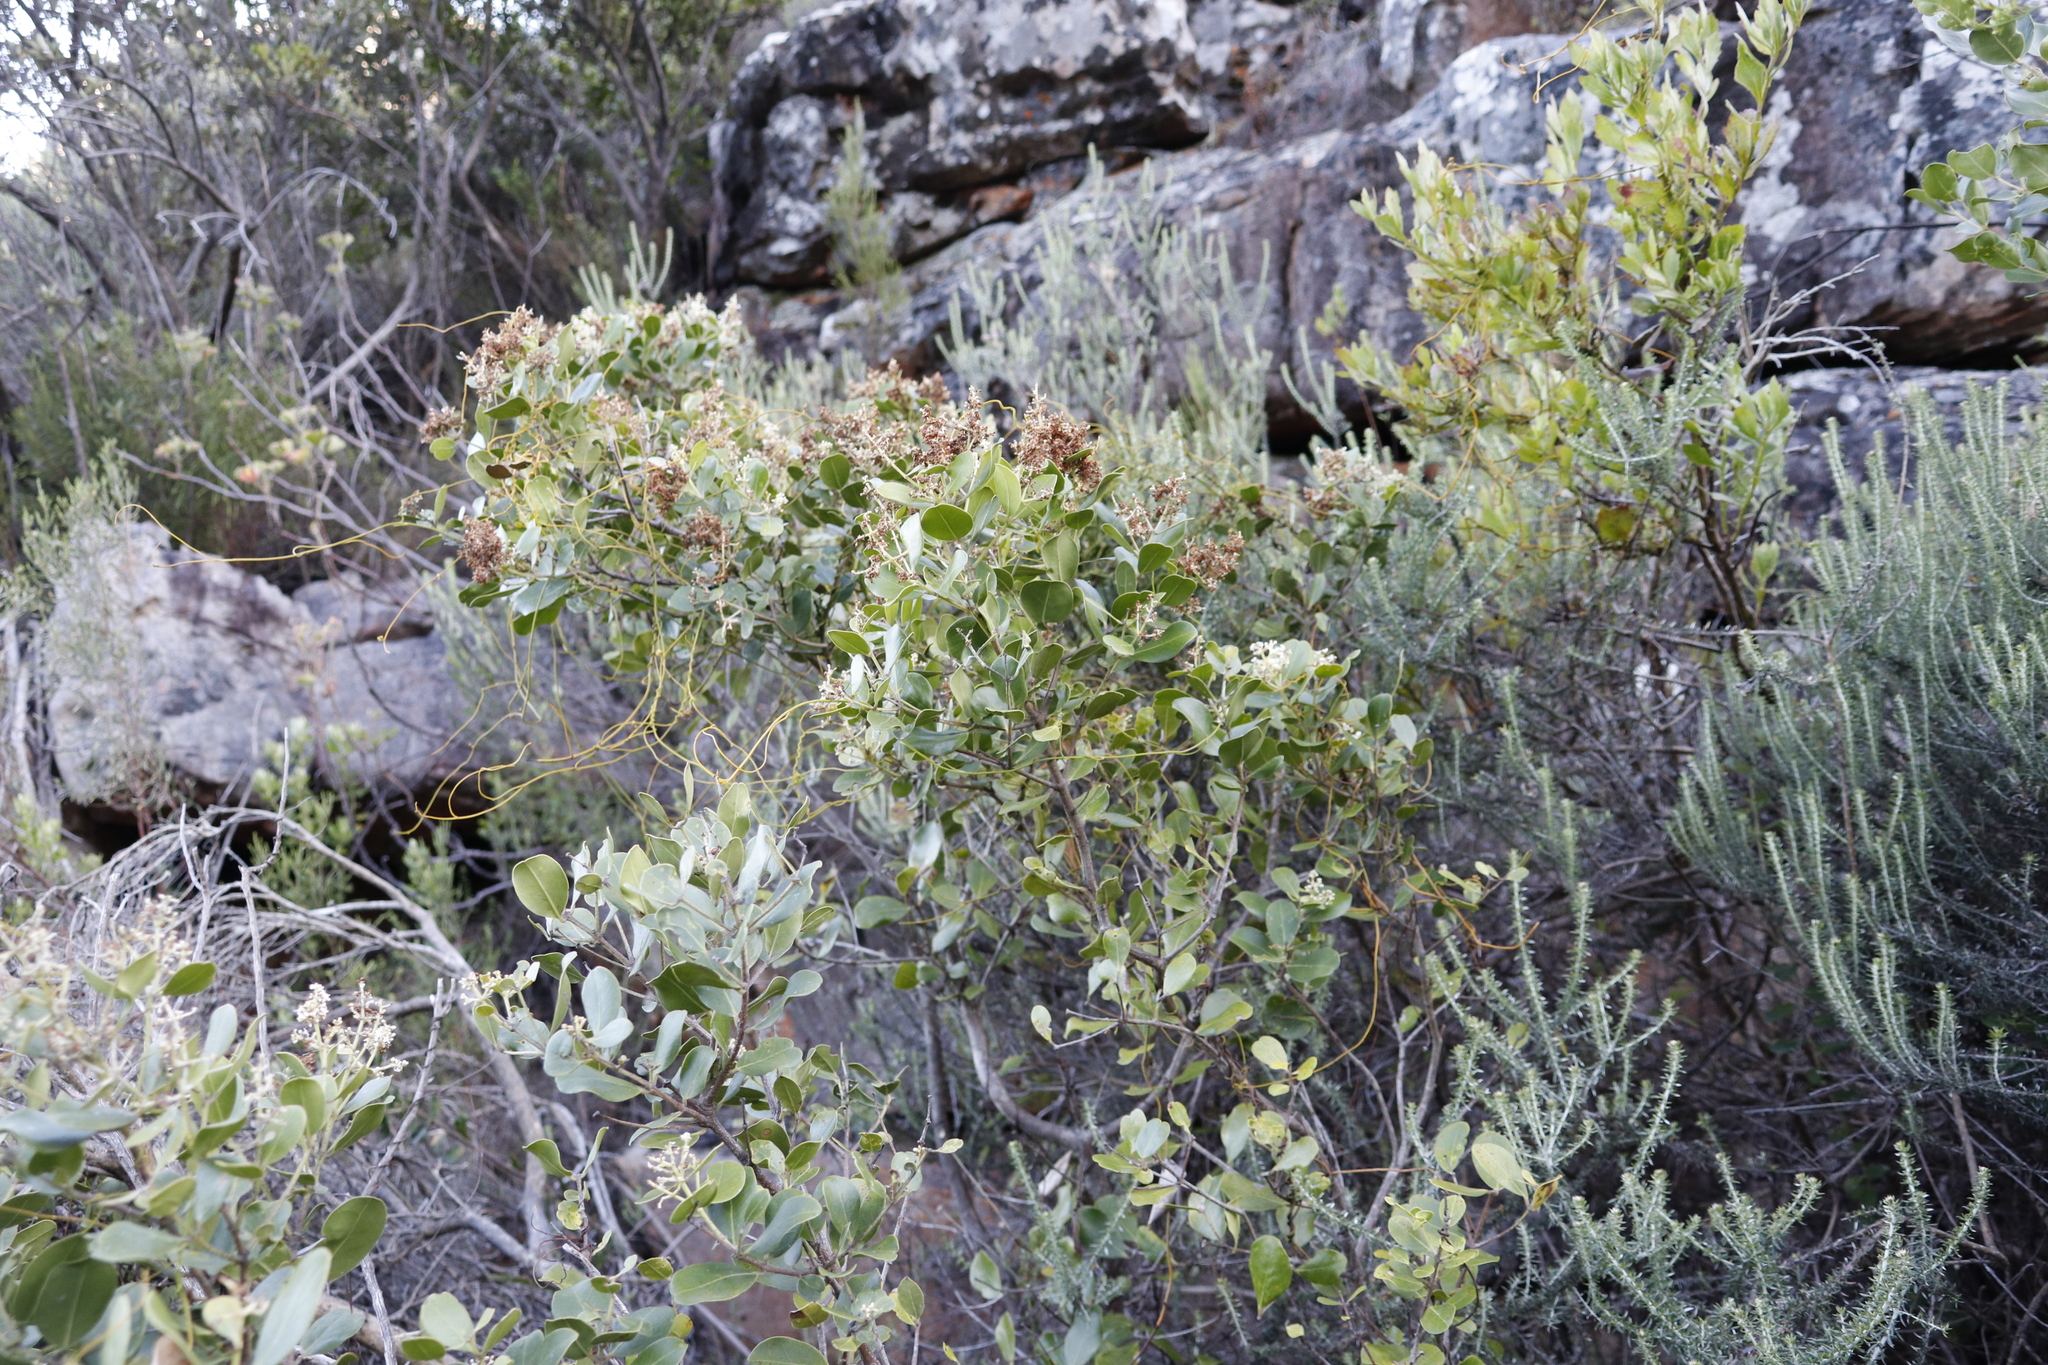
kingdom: Plantae
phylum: Tracheophyta
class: Magnoliopsida
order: Lamiales
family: Oleaceae
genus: Olea
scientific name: Olea capensis
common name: Black ironwood
